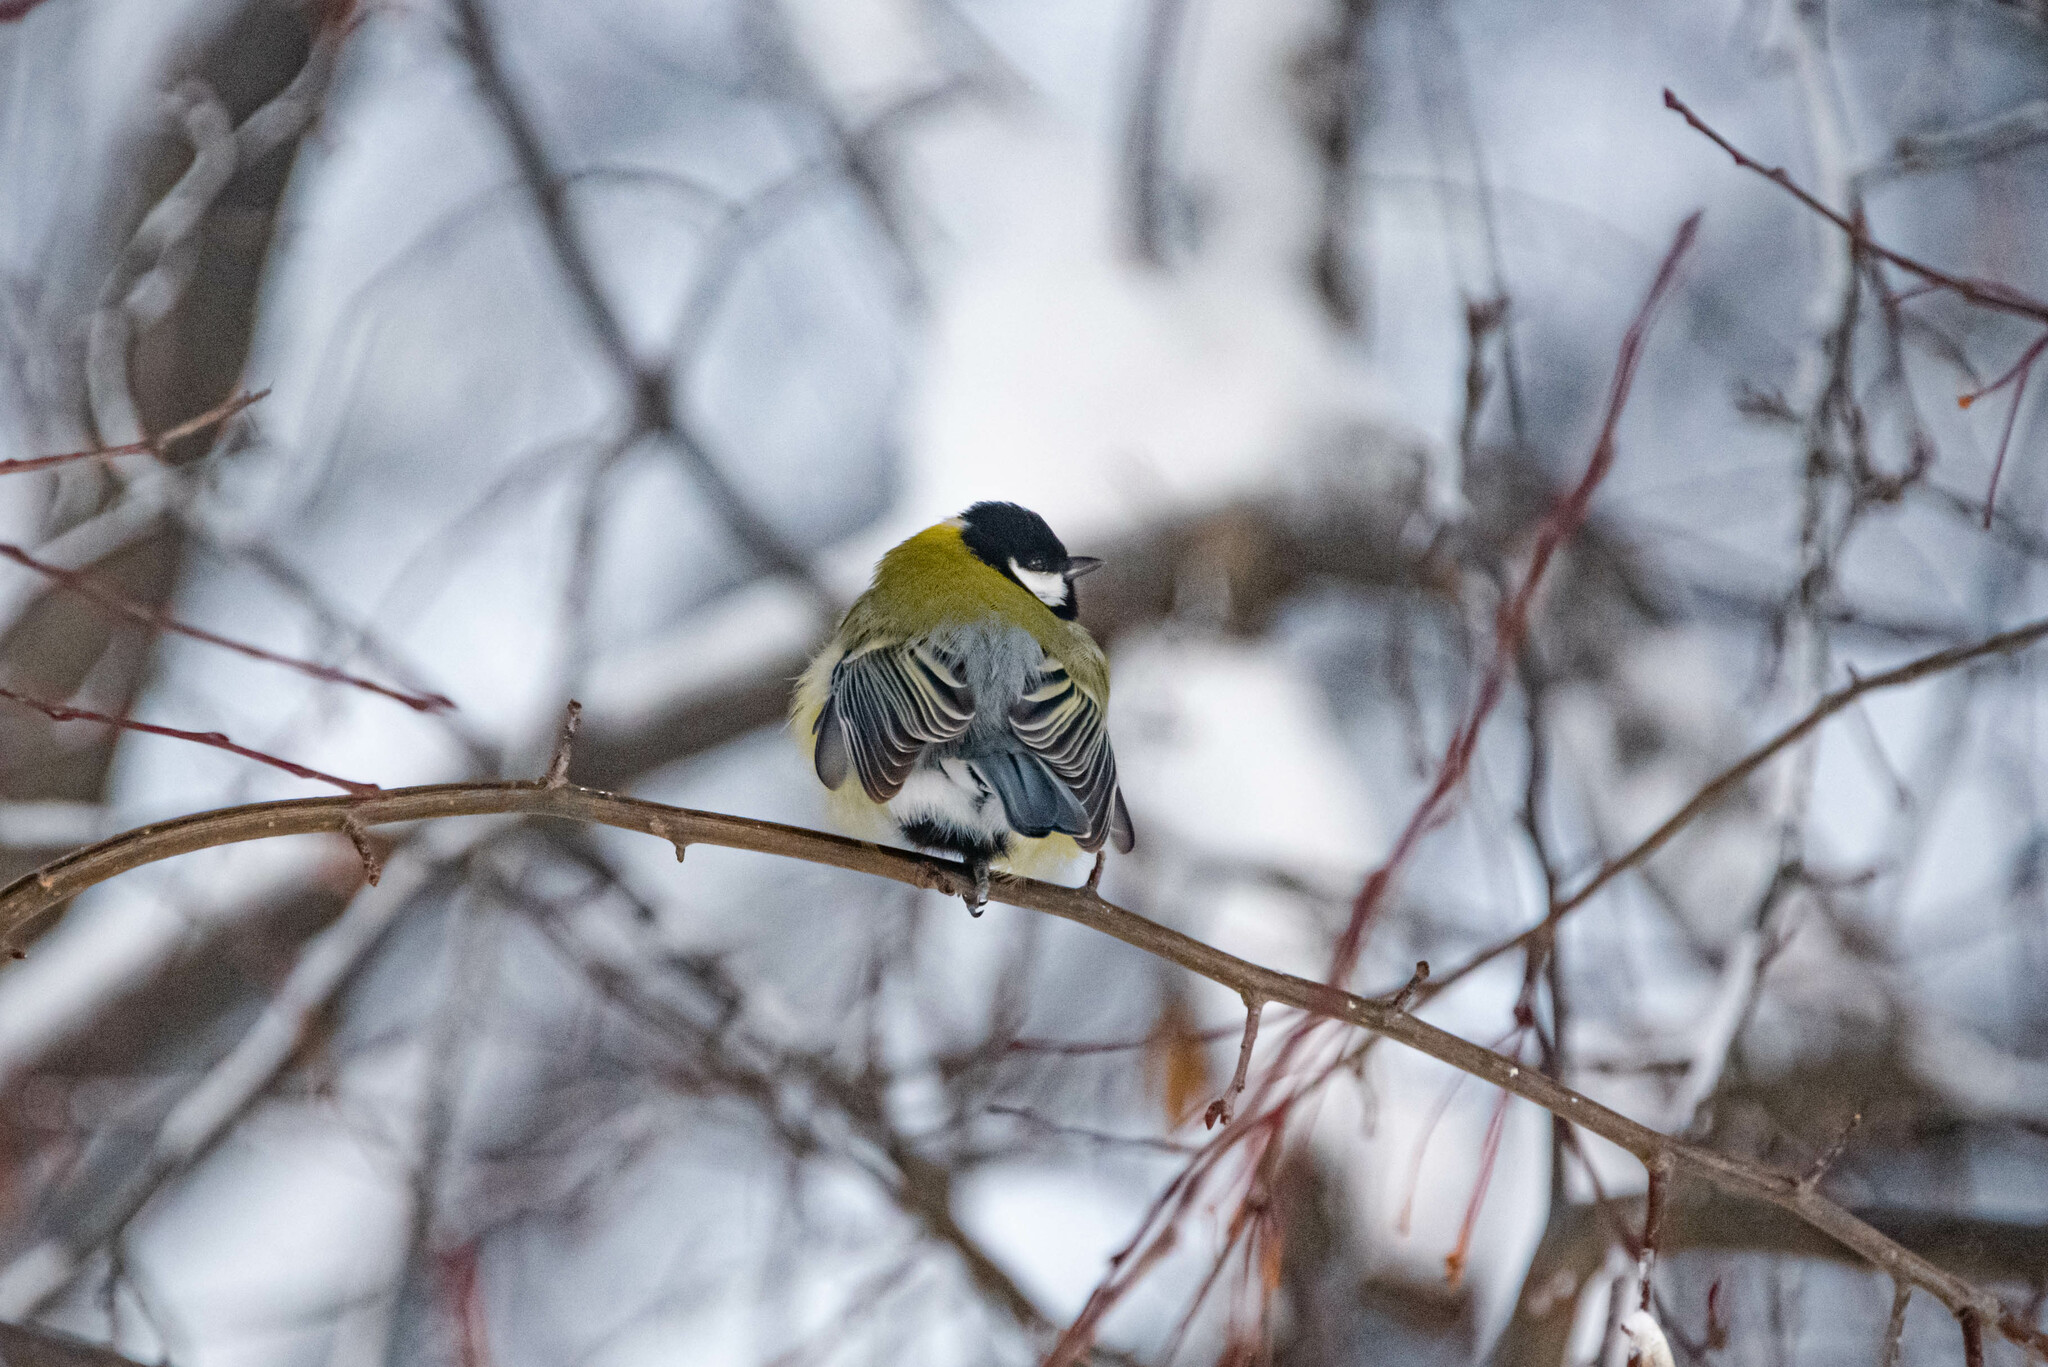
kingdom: Animalia
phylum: Chordata
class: Aves
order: Passeriformes
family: Paridae
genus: Parus
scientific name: Parus major
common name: Great tit
